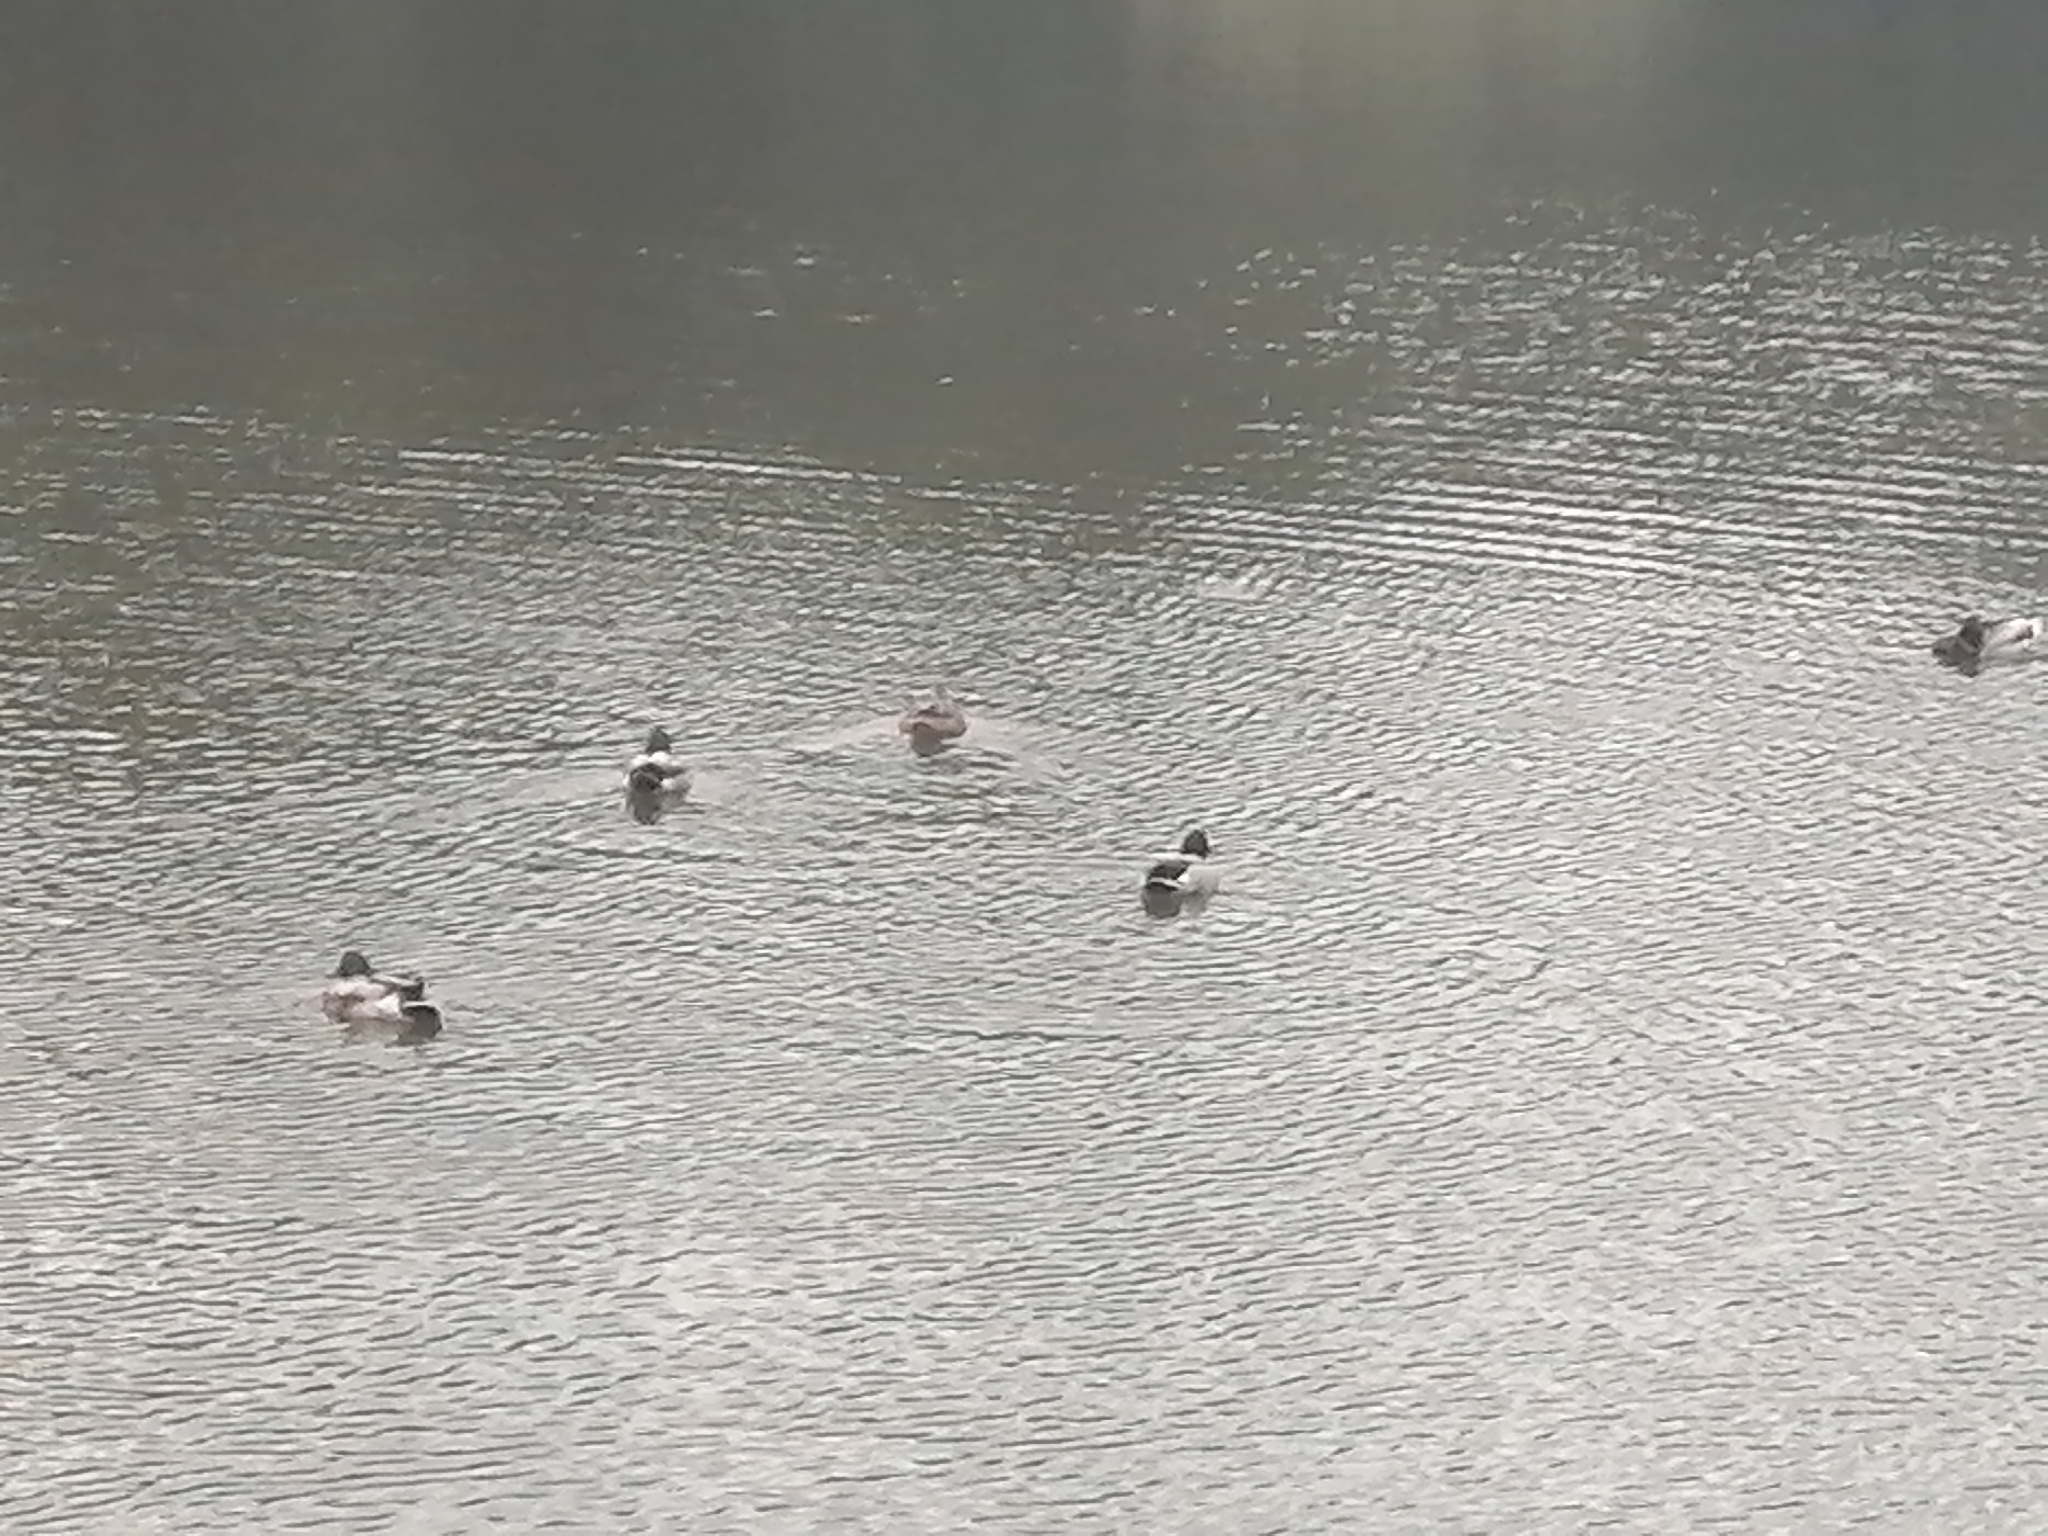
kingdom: Animalia
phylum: Chordata
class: Aves
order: Anseriformes
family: Anatidae
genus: Anas
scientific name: Anas platyrhynchos
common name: Mallard
